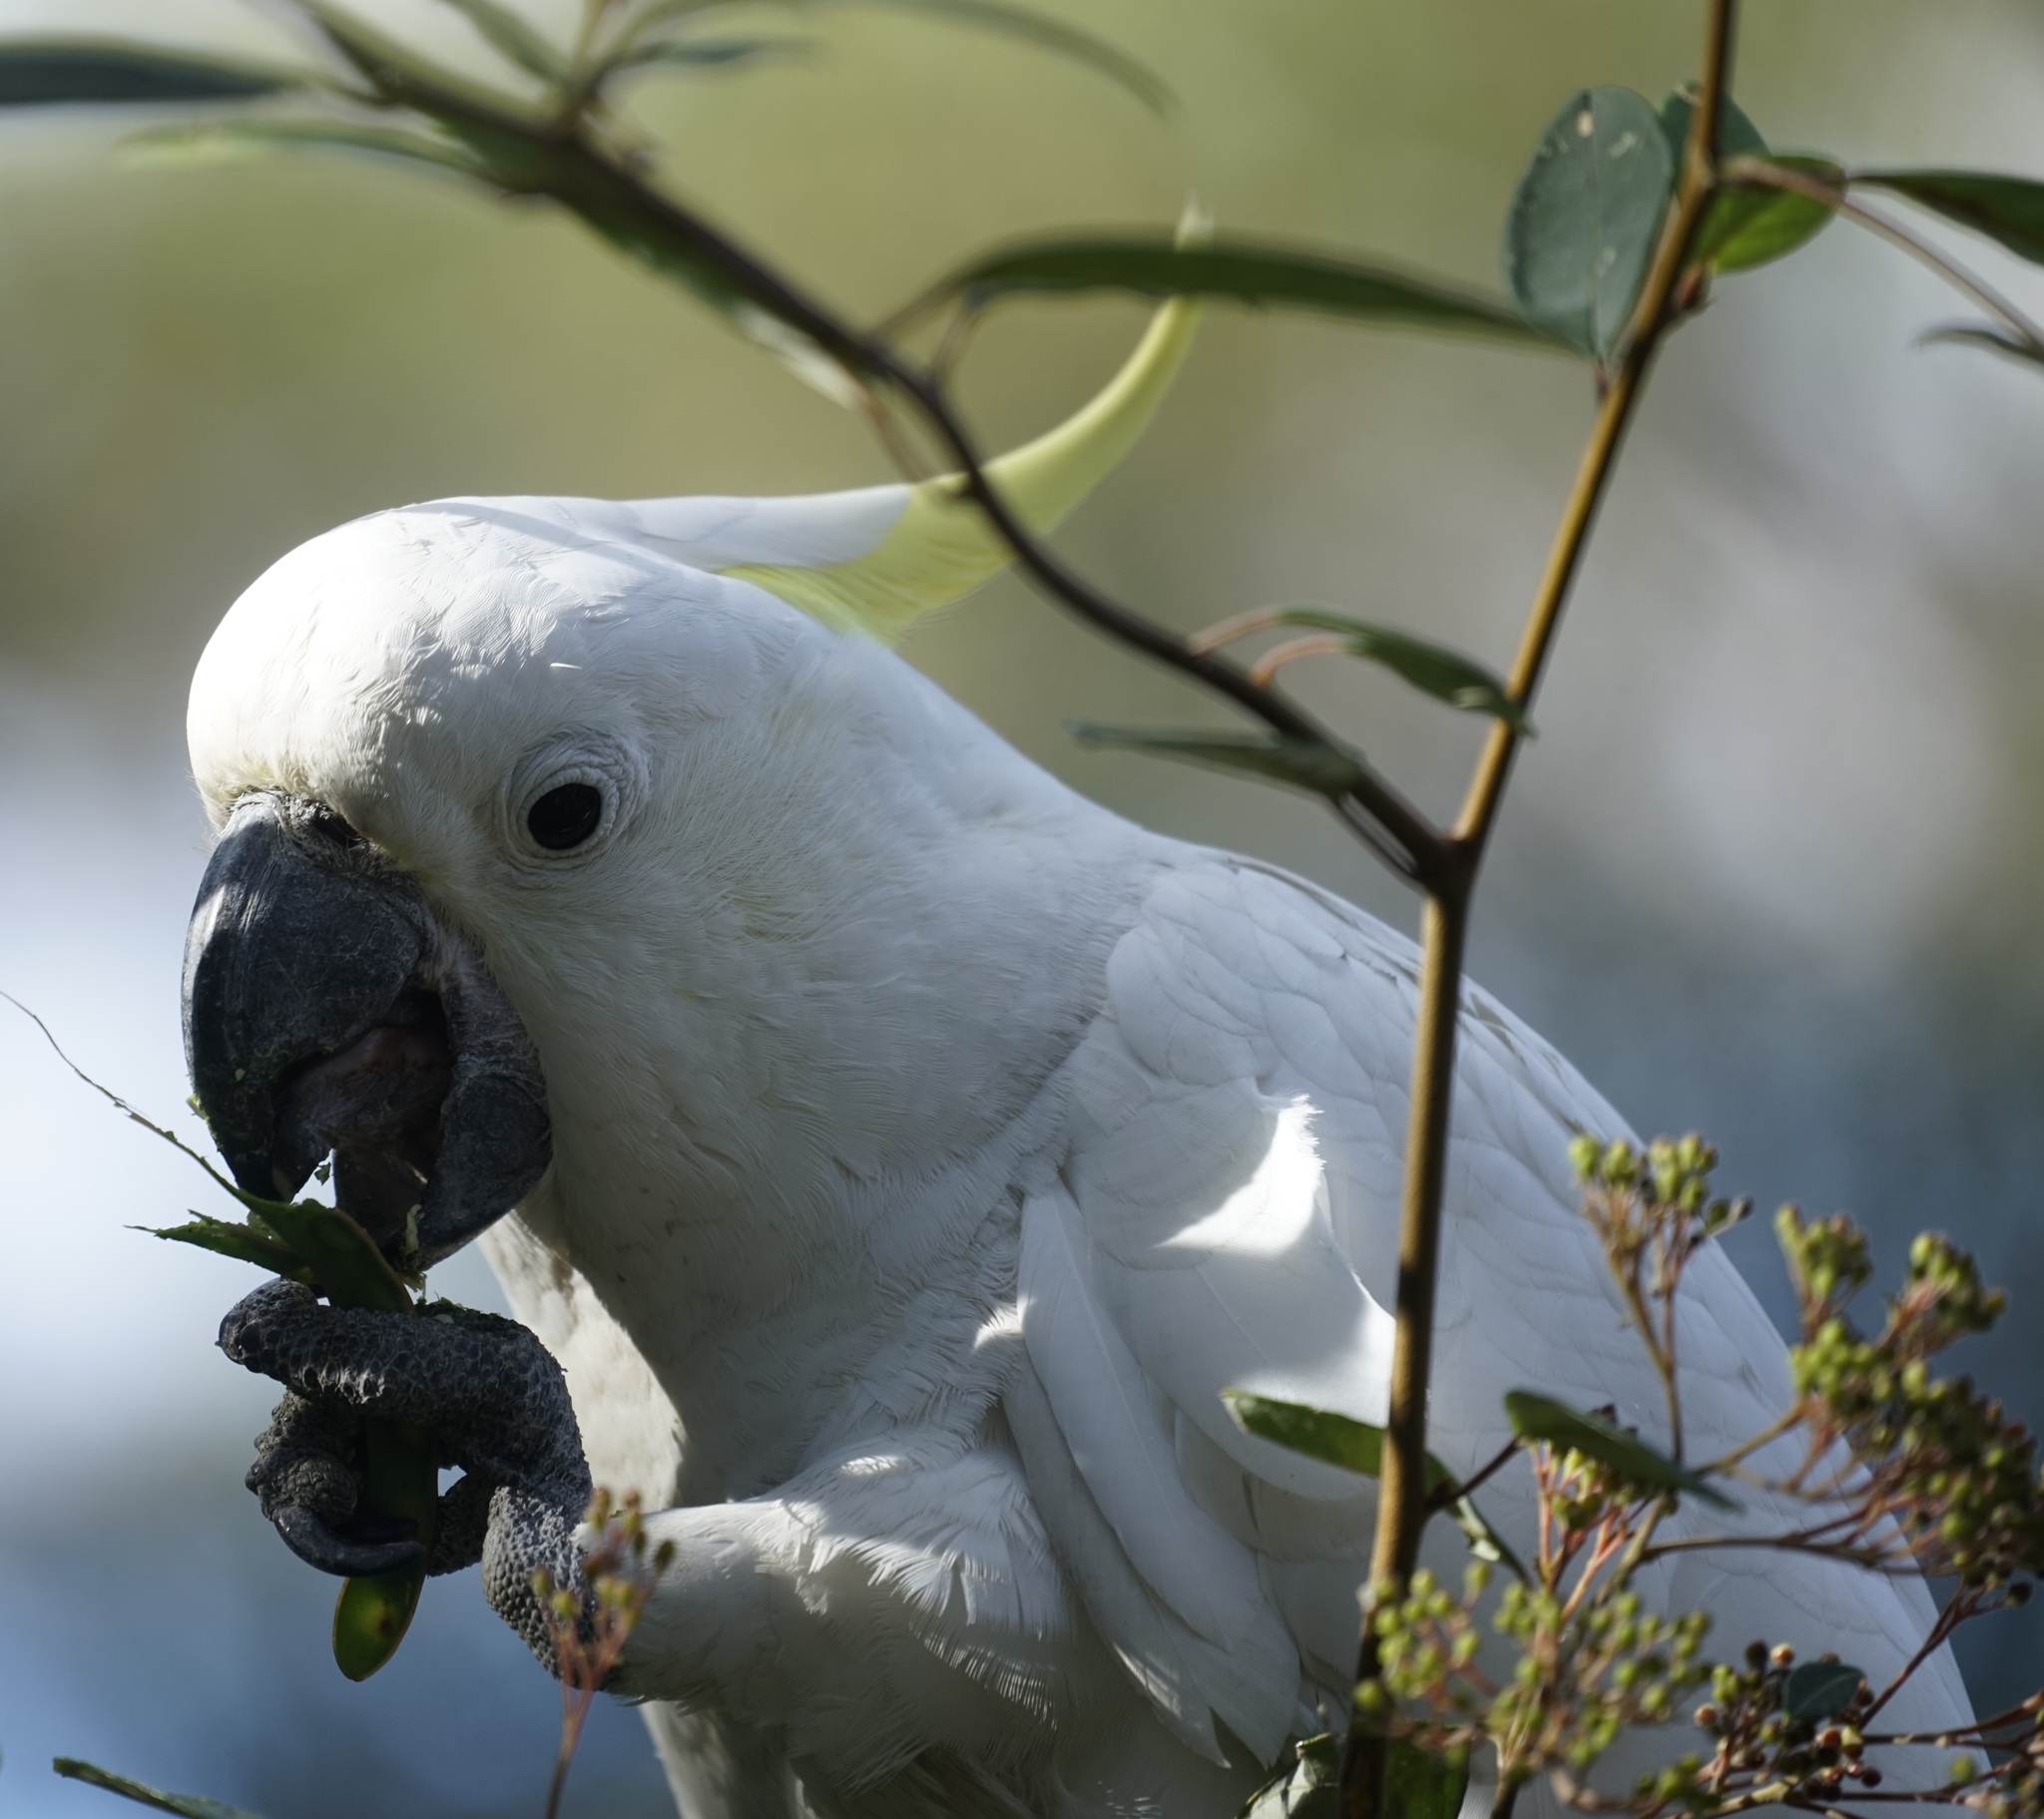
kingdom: Animalia
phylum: Chordata
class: Aves
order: Psittaciformes
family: Psittacidae
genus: Cacatua
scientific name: Cacatua galerita
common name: Sulphur-crested cockatoo
